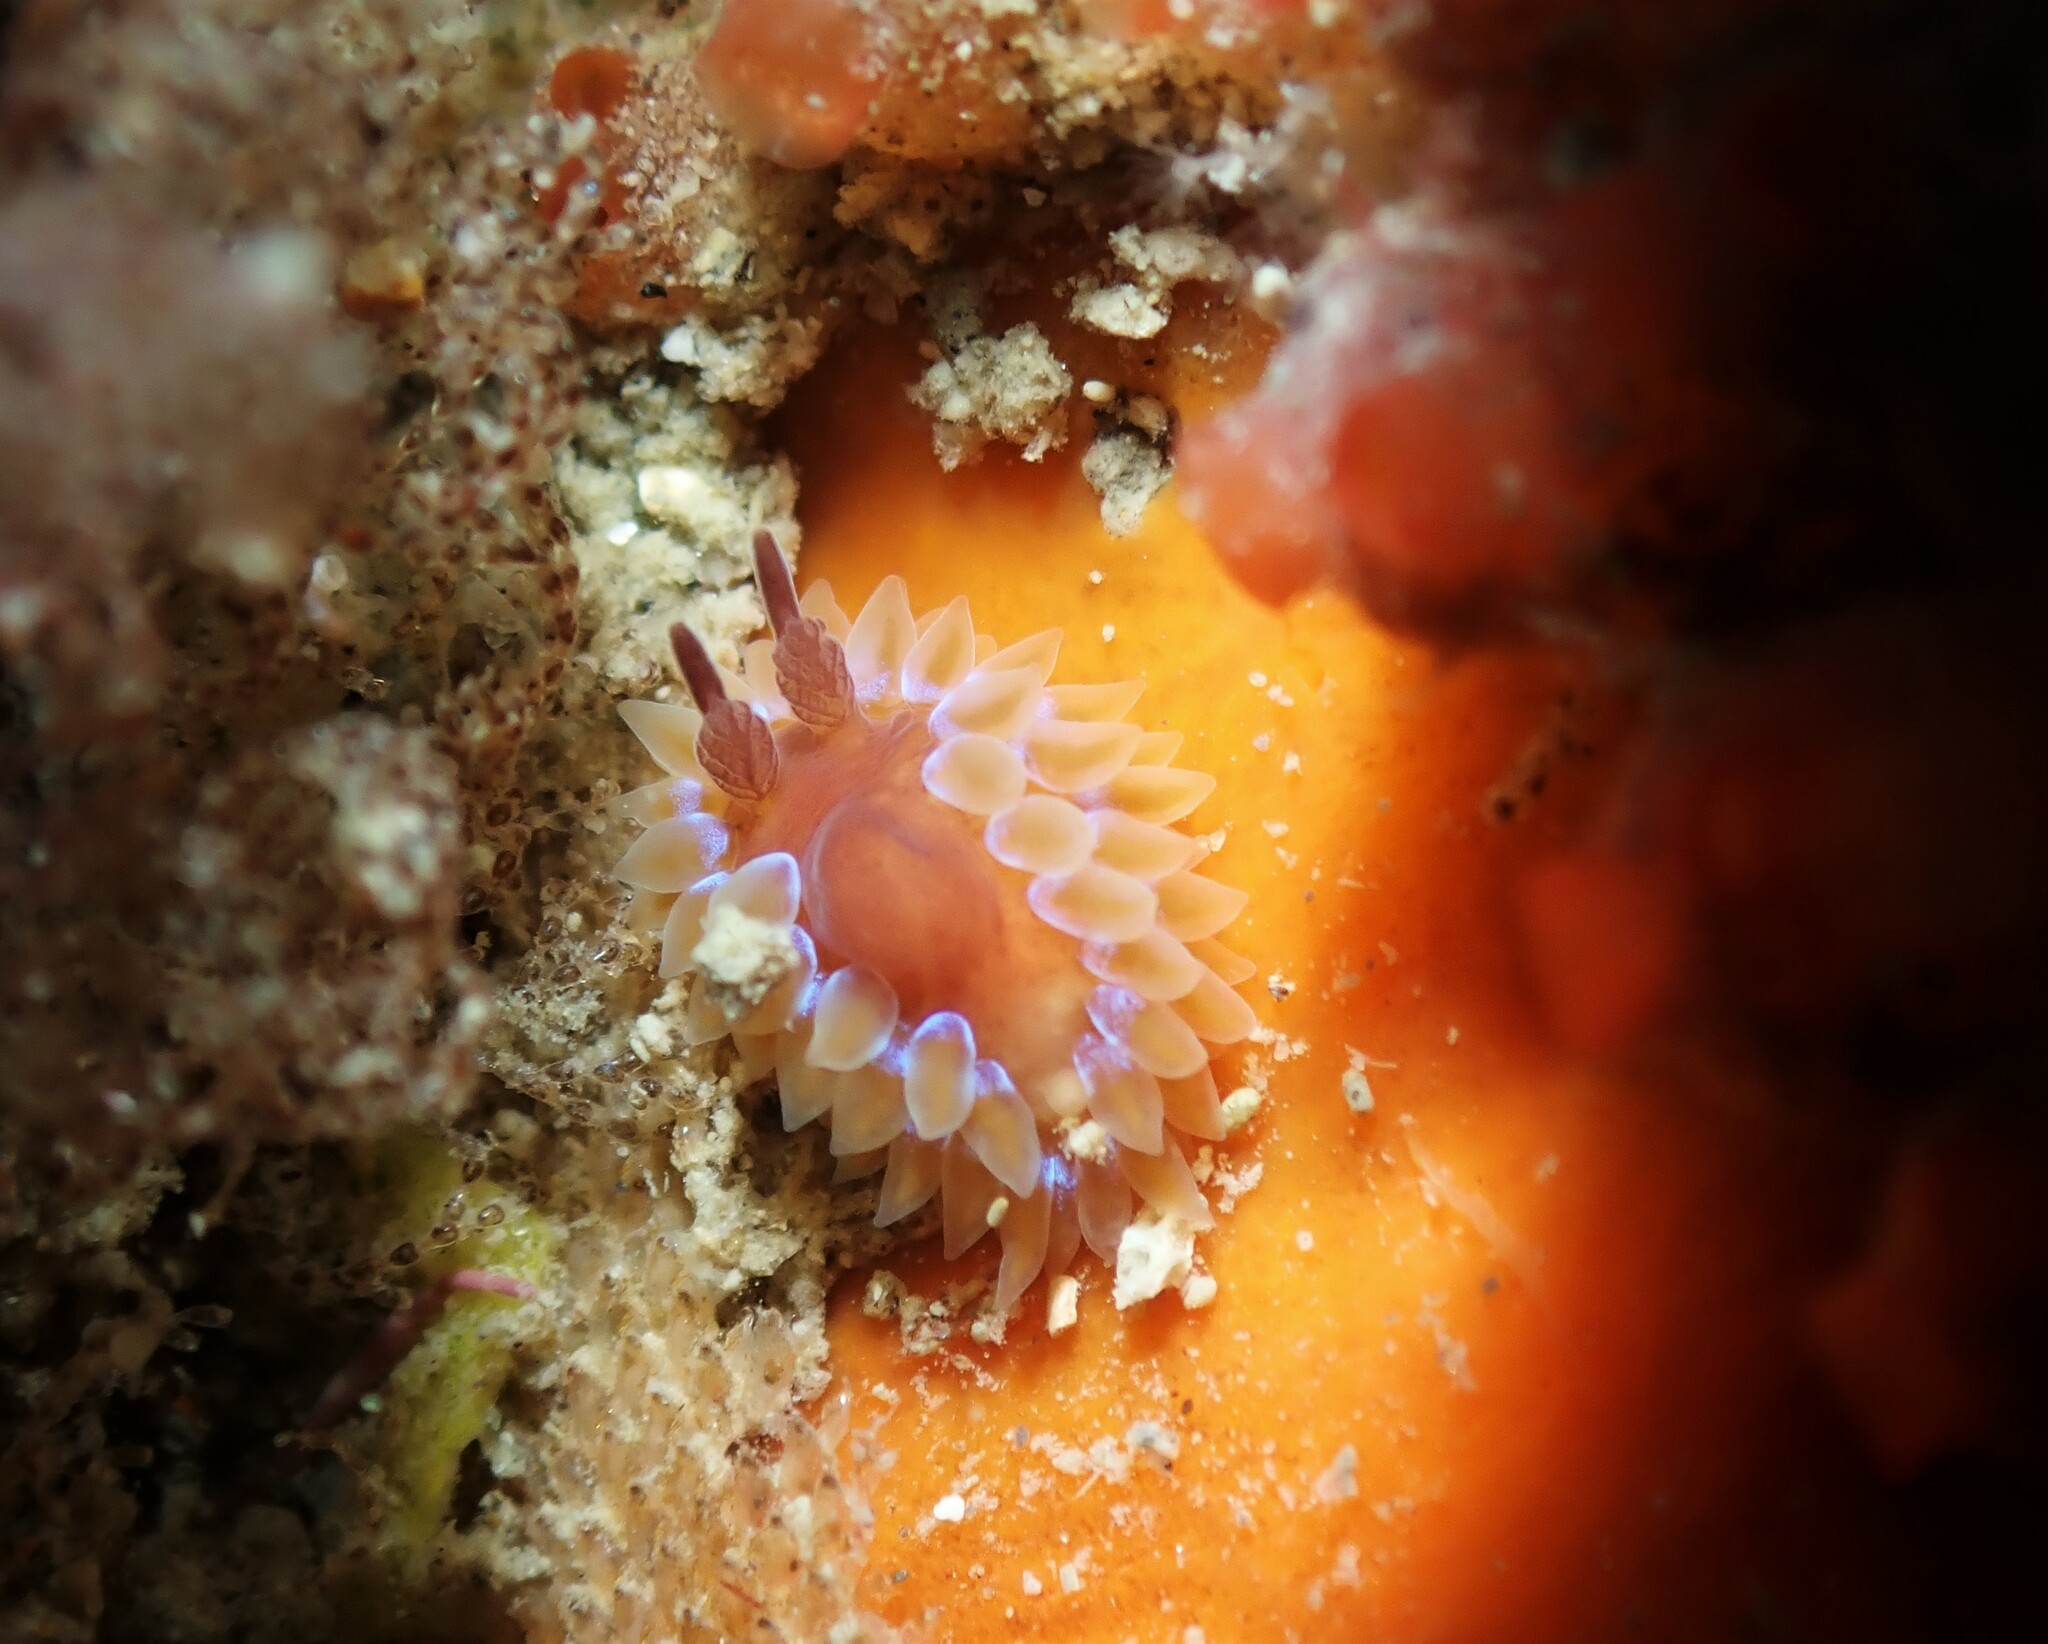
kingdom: Animalia
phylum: Mollusca
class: Gastropoda
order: Nudibranchia
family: Proctonotidae
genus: Caldukia
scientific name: Caldukia rubiginosa
